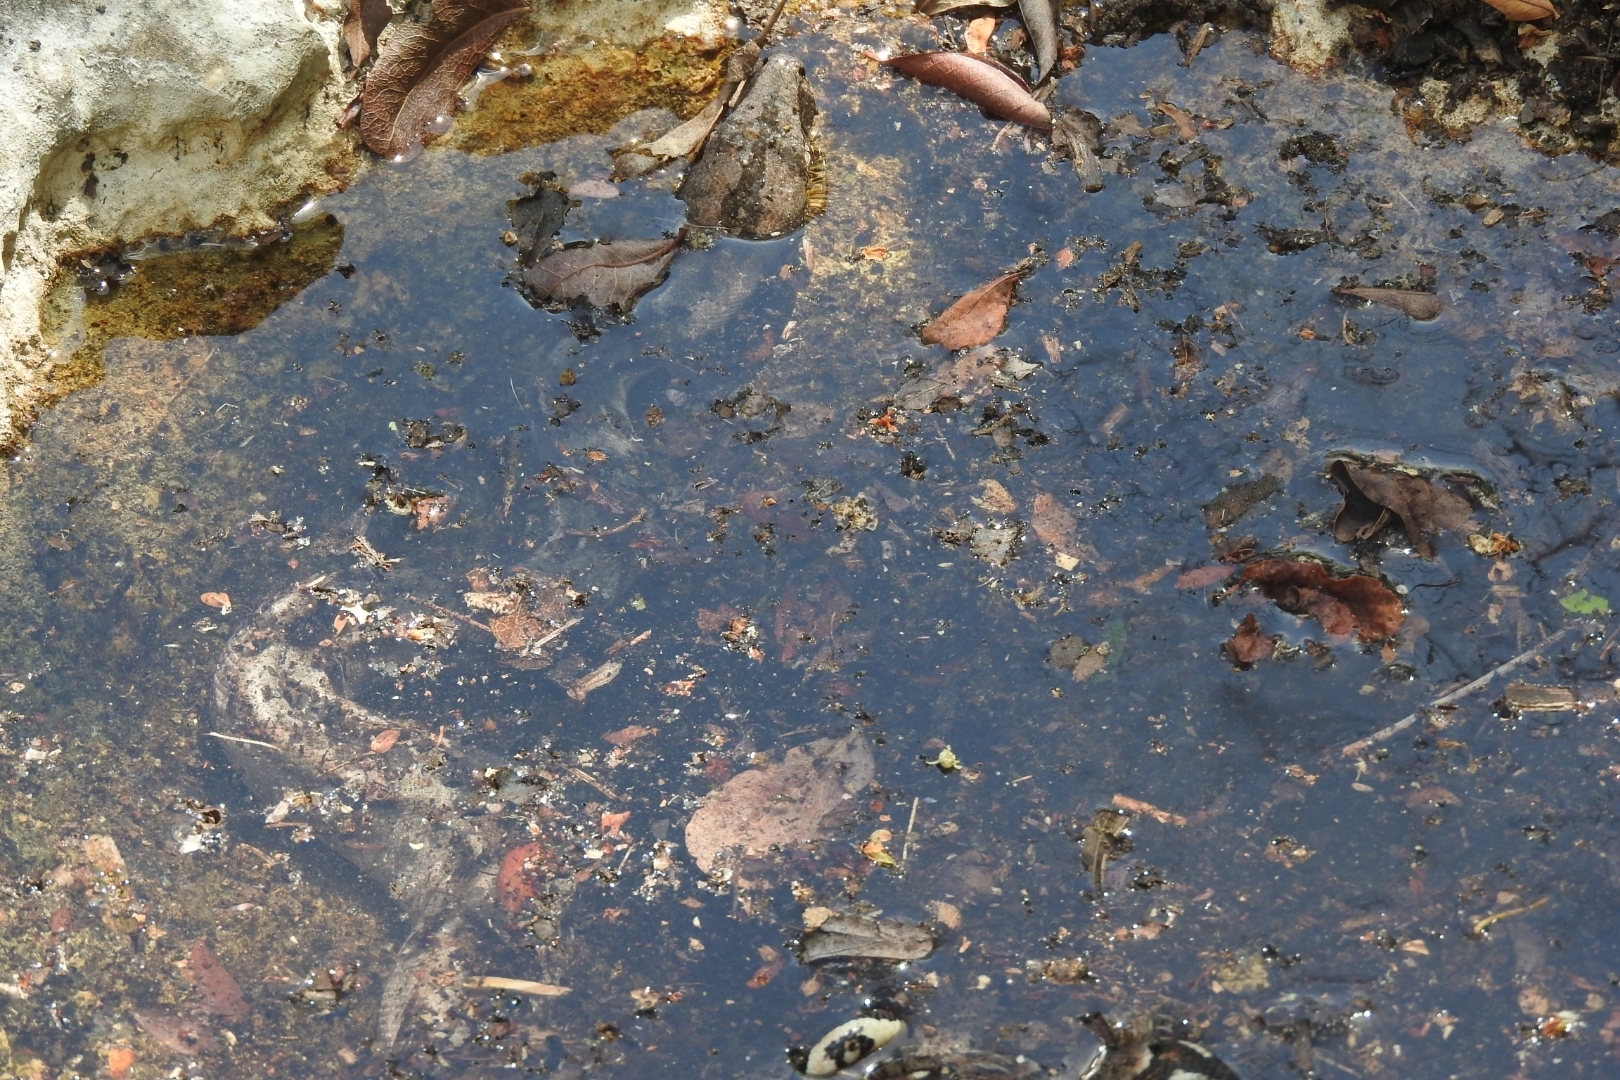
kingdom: Animalia
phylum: Chordata
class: Squamata
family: Boidae
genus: Boa
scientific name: Boa imperator
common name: Central american boa
